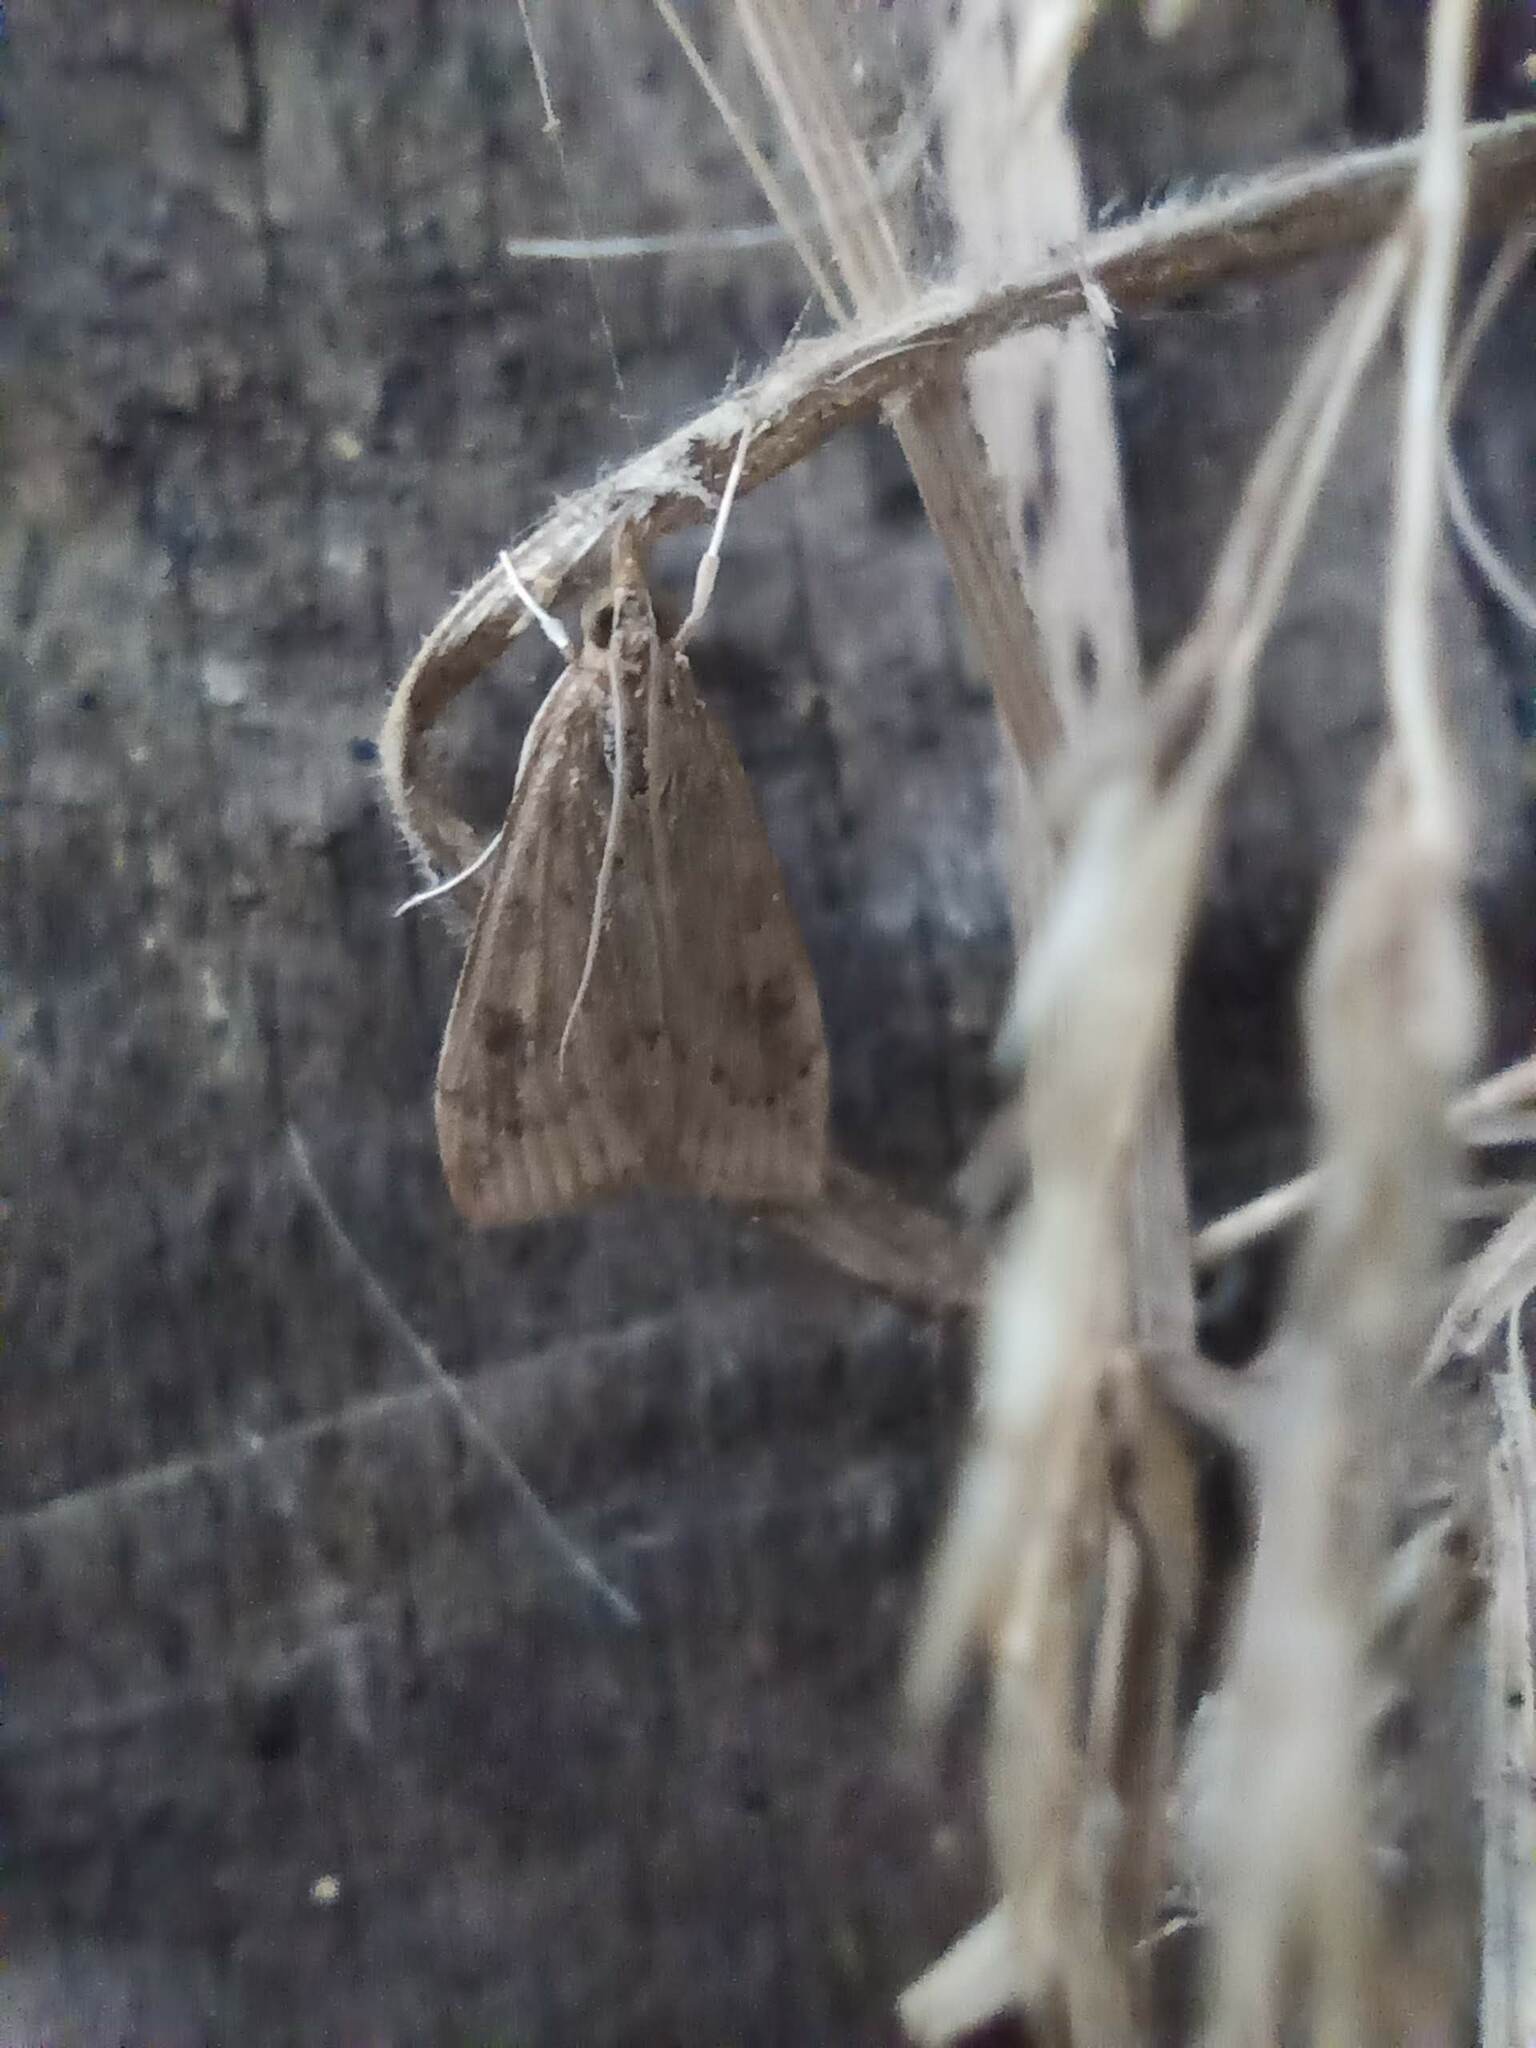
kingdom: Animalia
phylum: Arthropoda
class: Insecta
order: Lepidoptera
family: Crambidae
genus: Udea
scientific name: Udea ferrugalis
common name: Rusty dot
